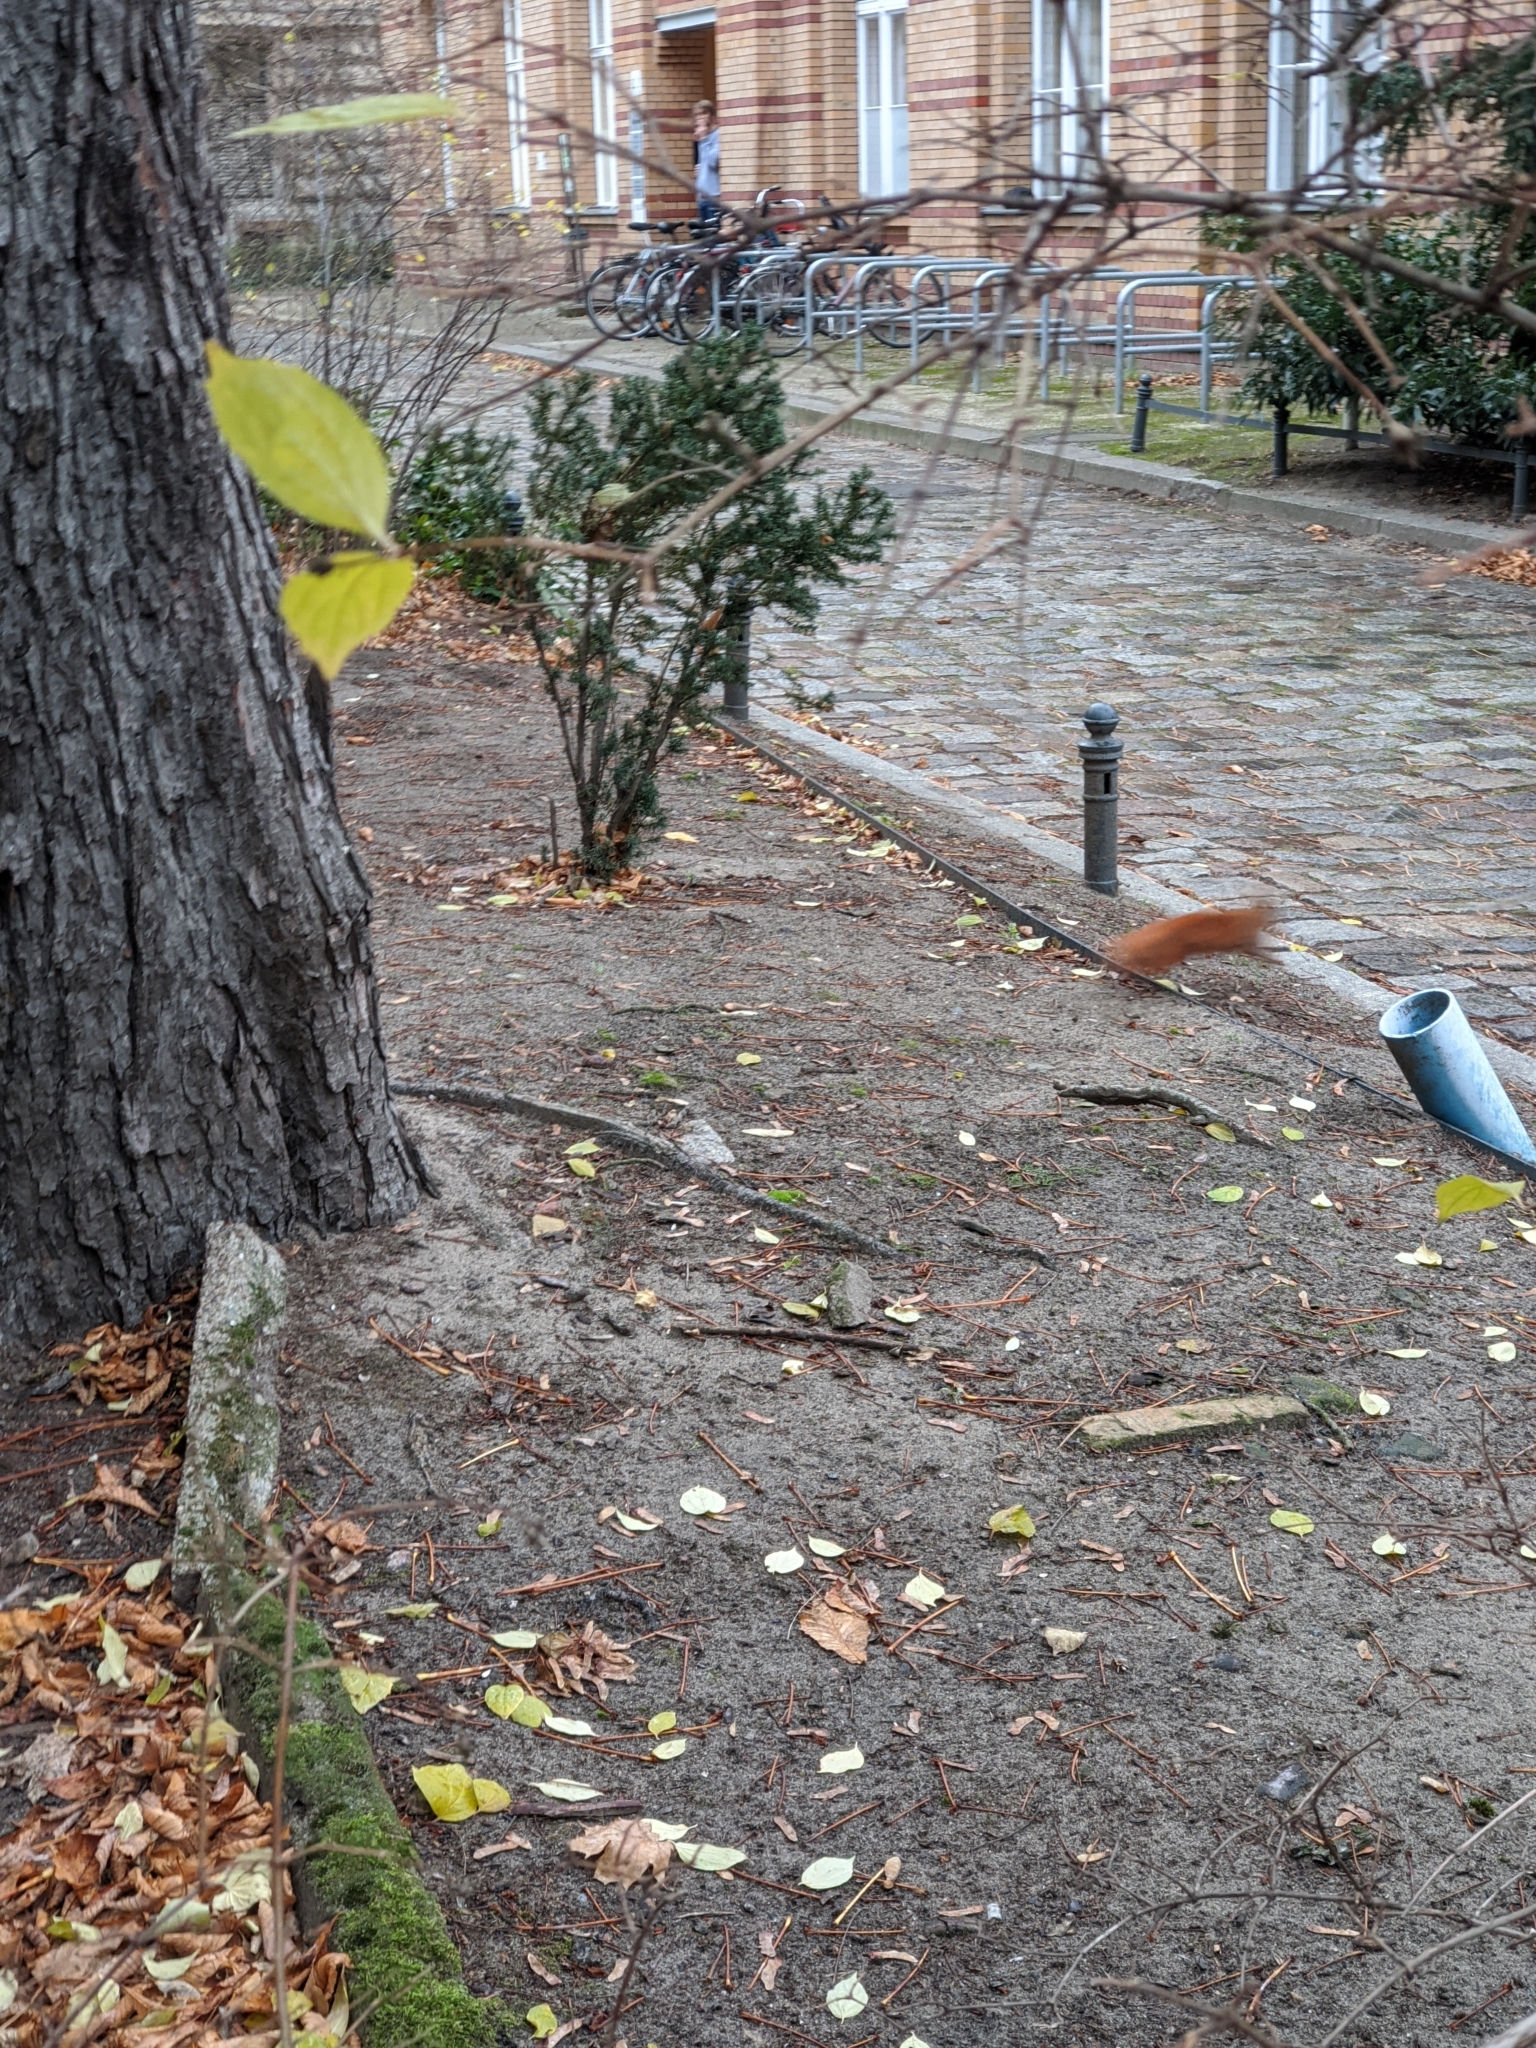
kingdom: Animalia
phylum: Chordata
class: Mammalia
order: Rodentia
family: Sciuridae
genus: Sciurus
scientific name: Sciurus vulgaris
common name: Eurasian red squirrel
